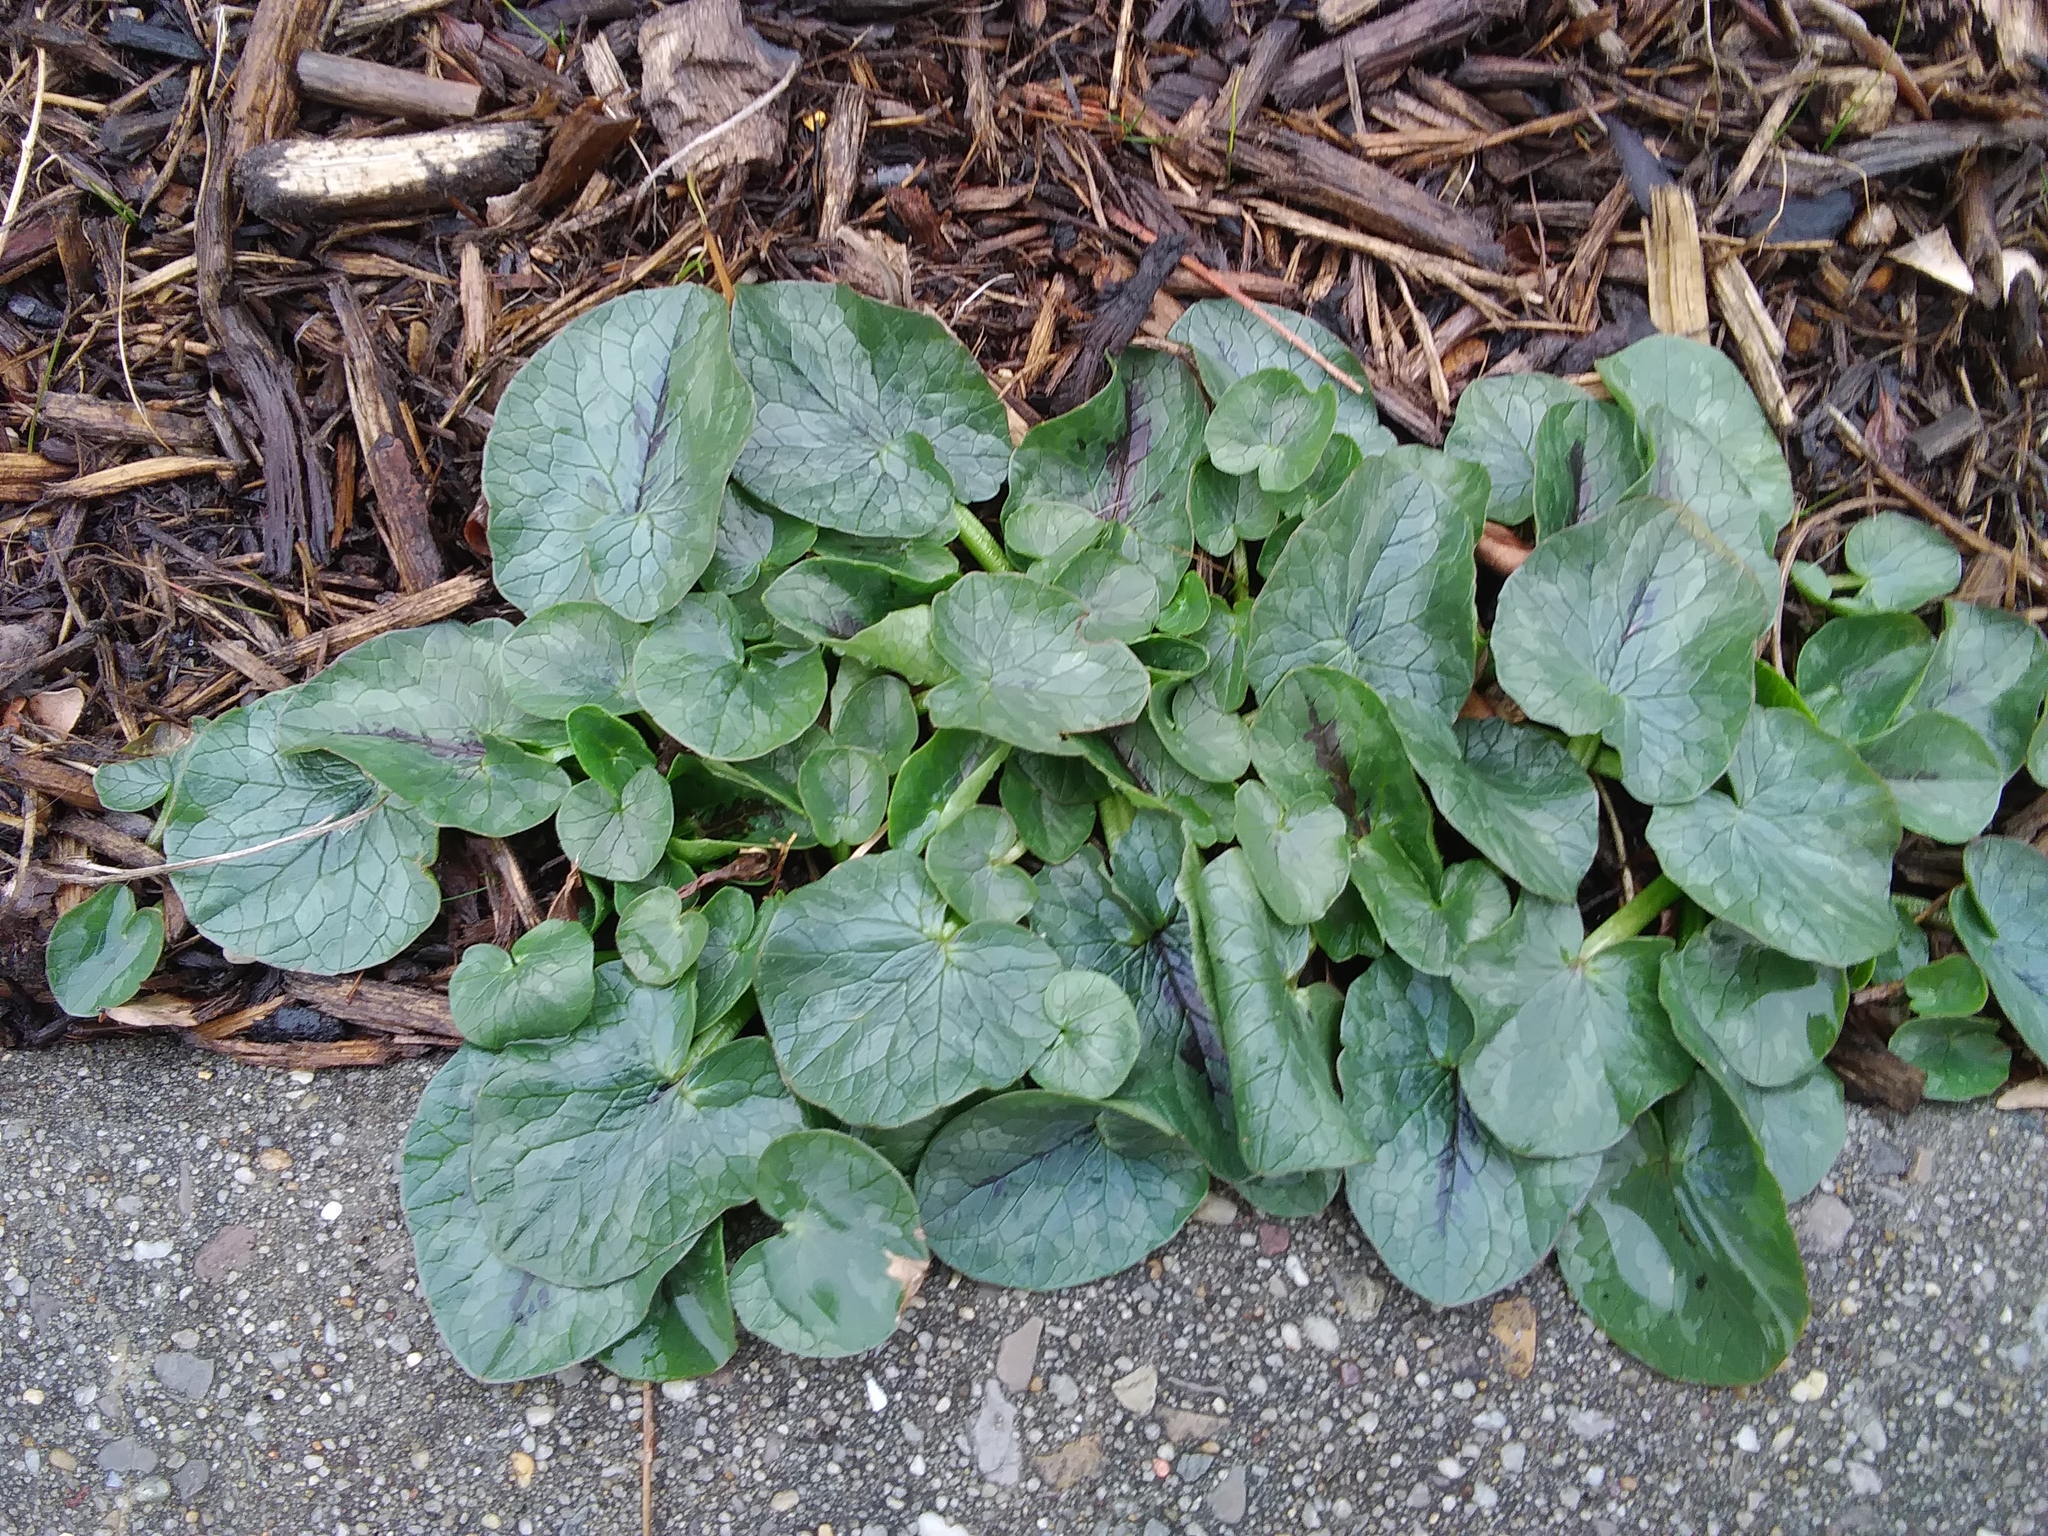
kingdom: Plantae
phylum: Tracheophyta
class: Magnoliopsida
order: Ranunculales
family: Ranunculaceae
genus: Ficaria
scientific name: Ficaria verna
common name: Lesser celandine
